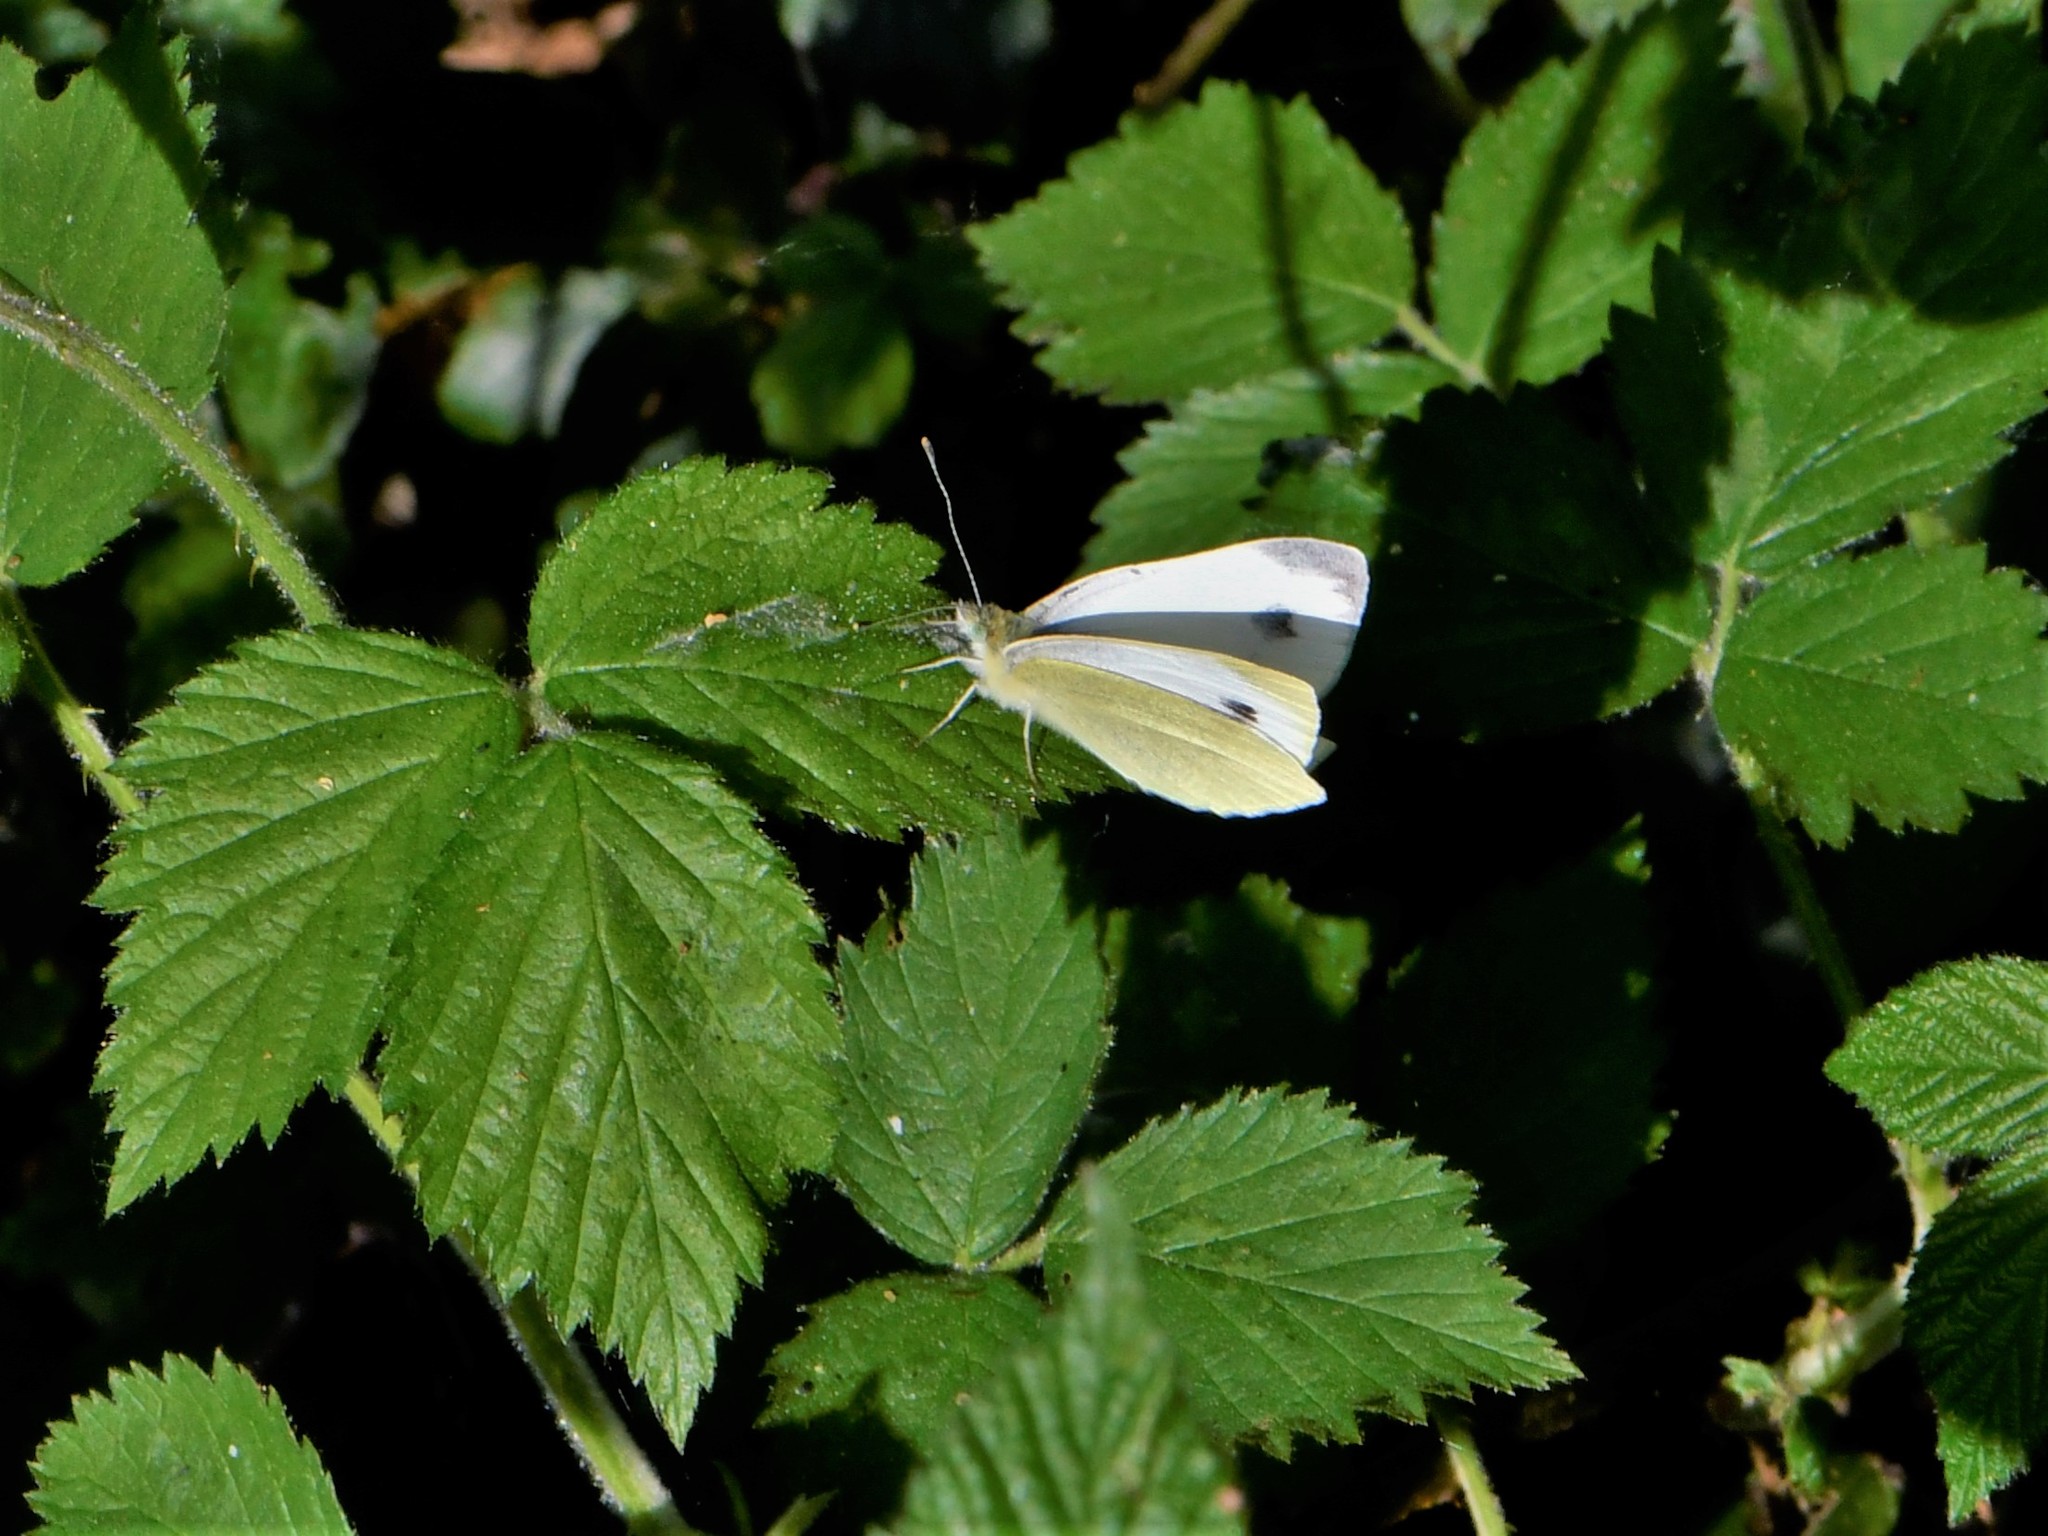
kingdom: Animalia
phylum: Arthropoda
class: Insecta
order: Lepidoptera
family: Pieridae
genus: Pieris
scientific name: Pieris mannii
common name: Southern small white
